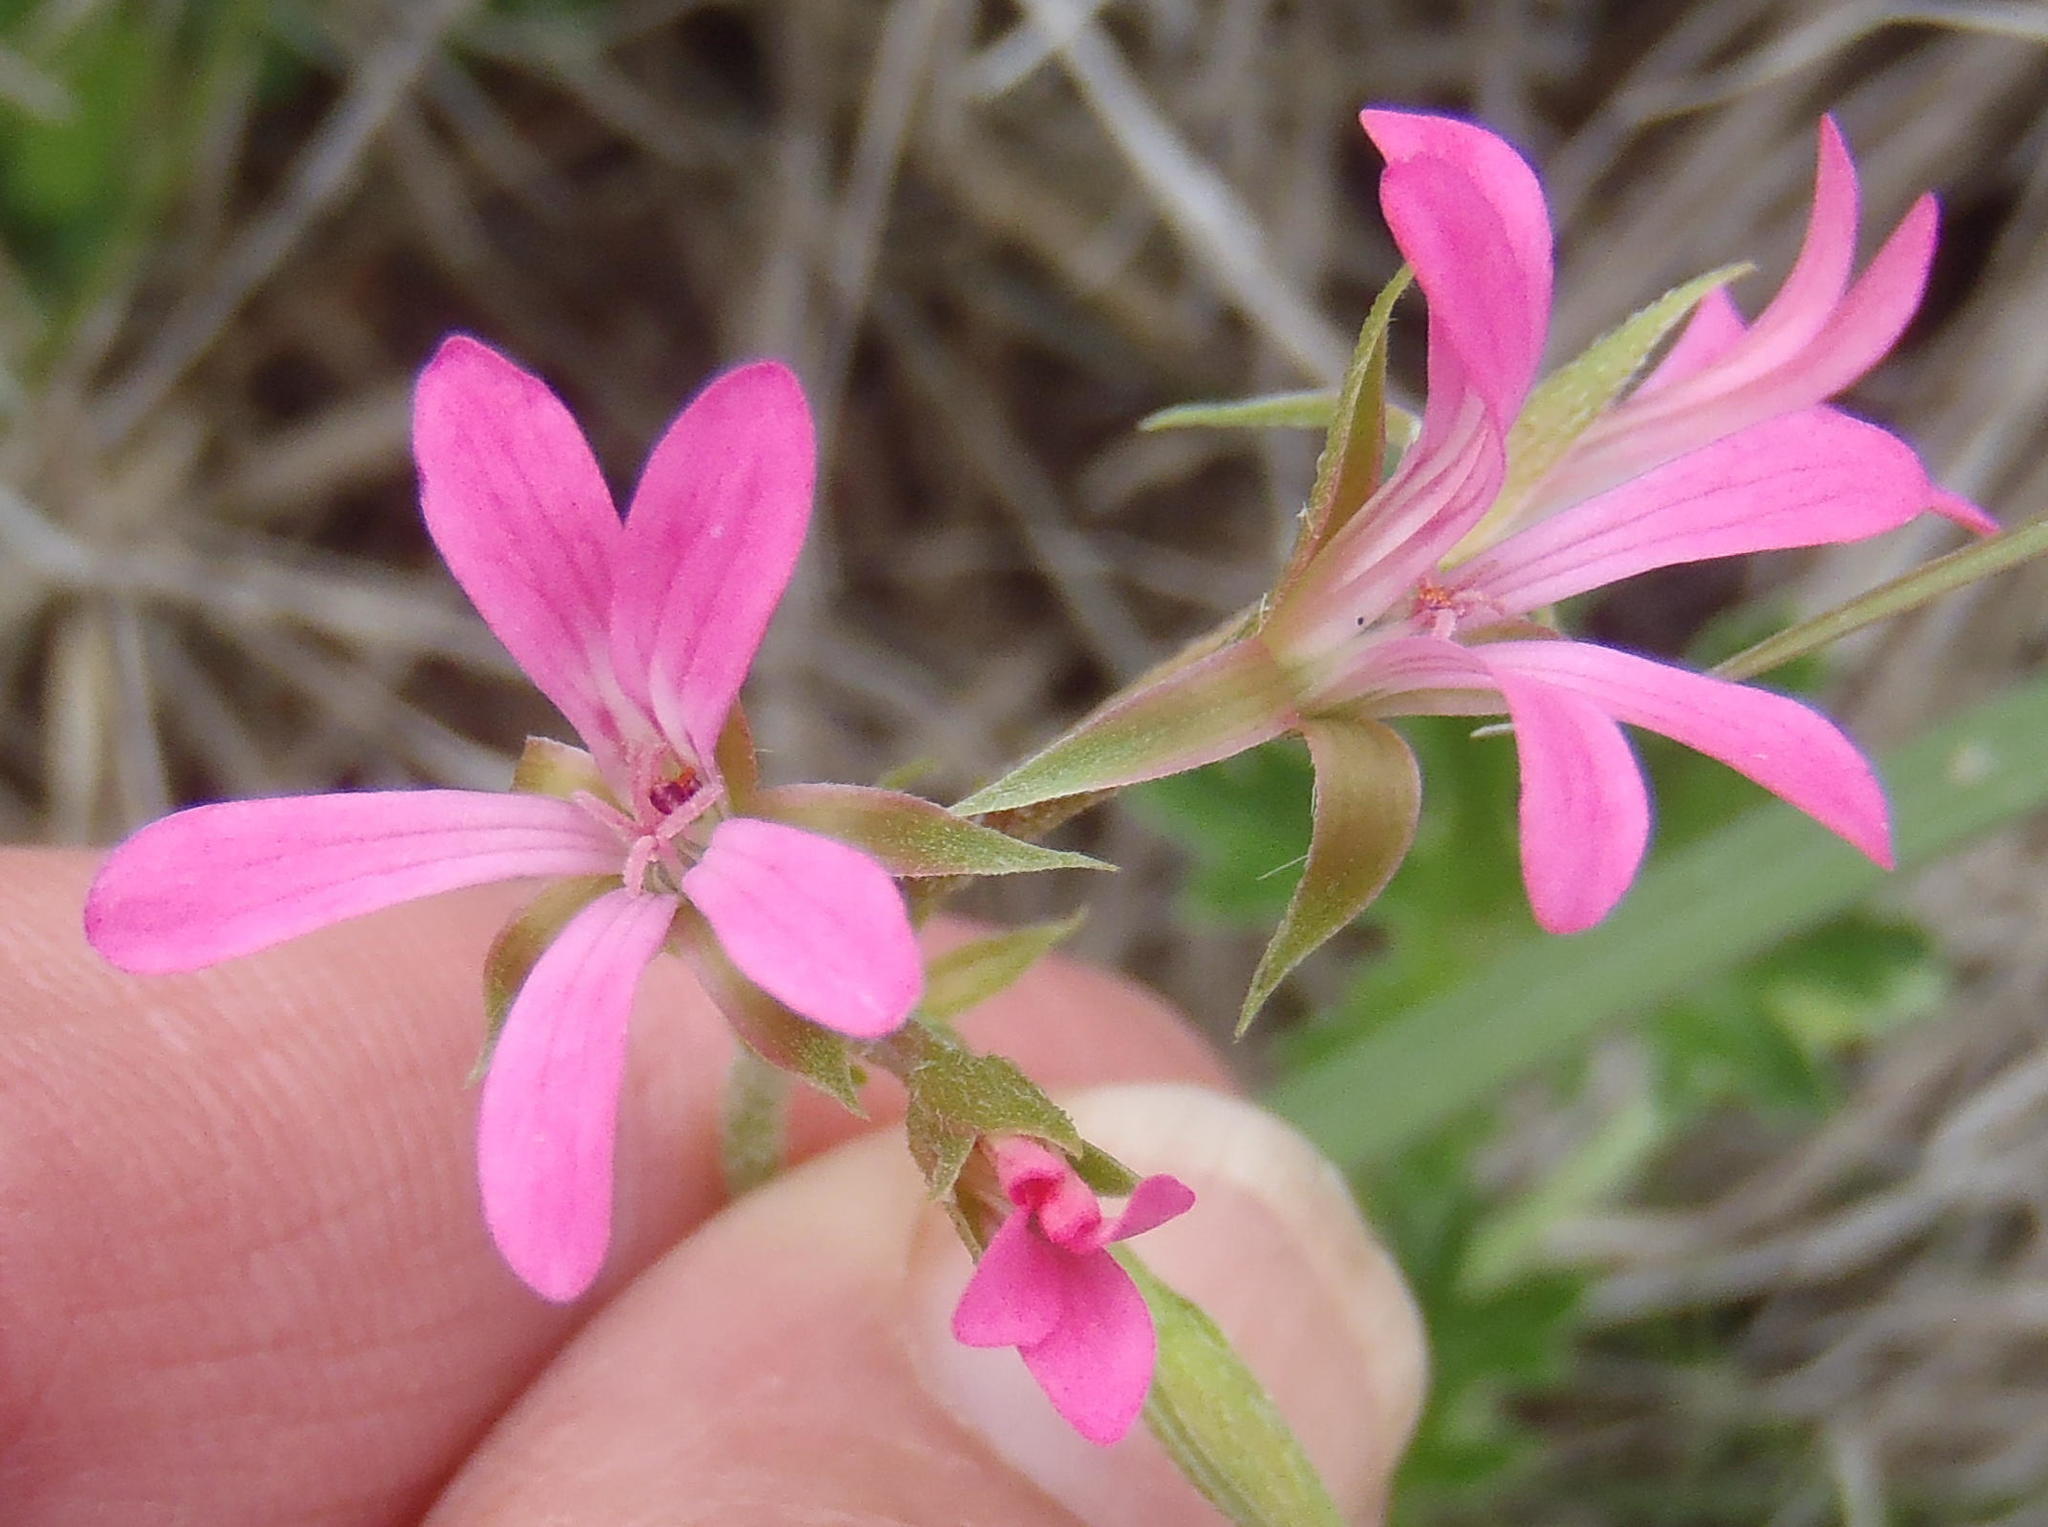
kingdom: Plantae
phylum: Tracheophyta
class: Magnoliopsida
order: Geraniales
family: Geraniaceae
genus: Pelargonium
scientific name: Pelargonium alchemilloides
